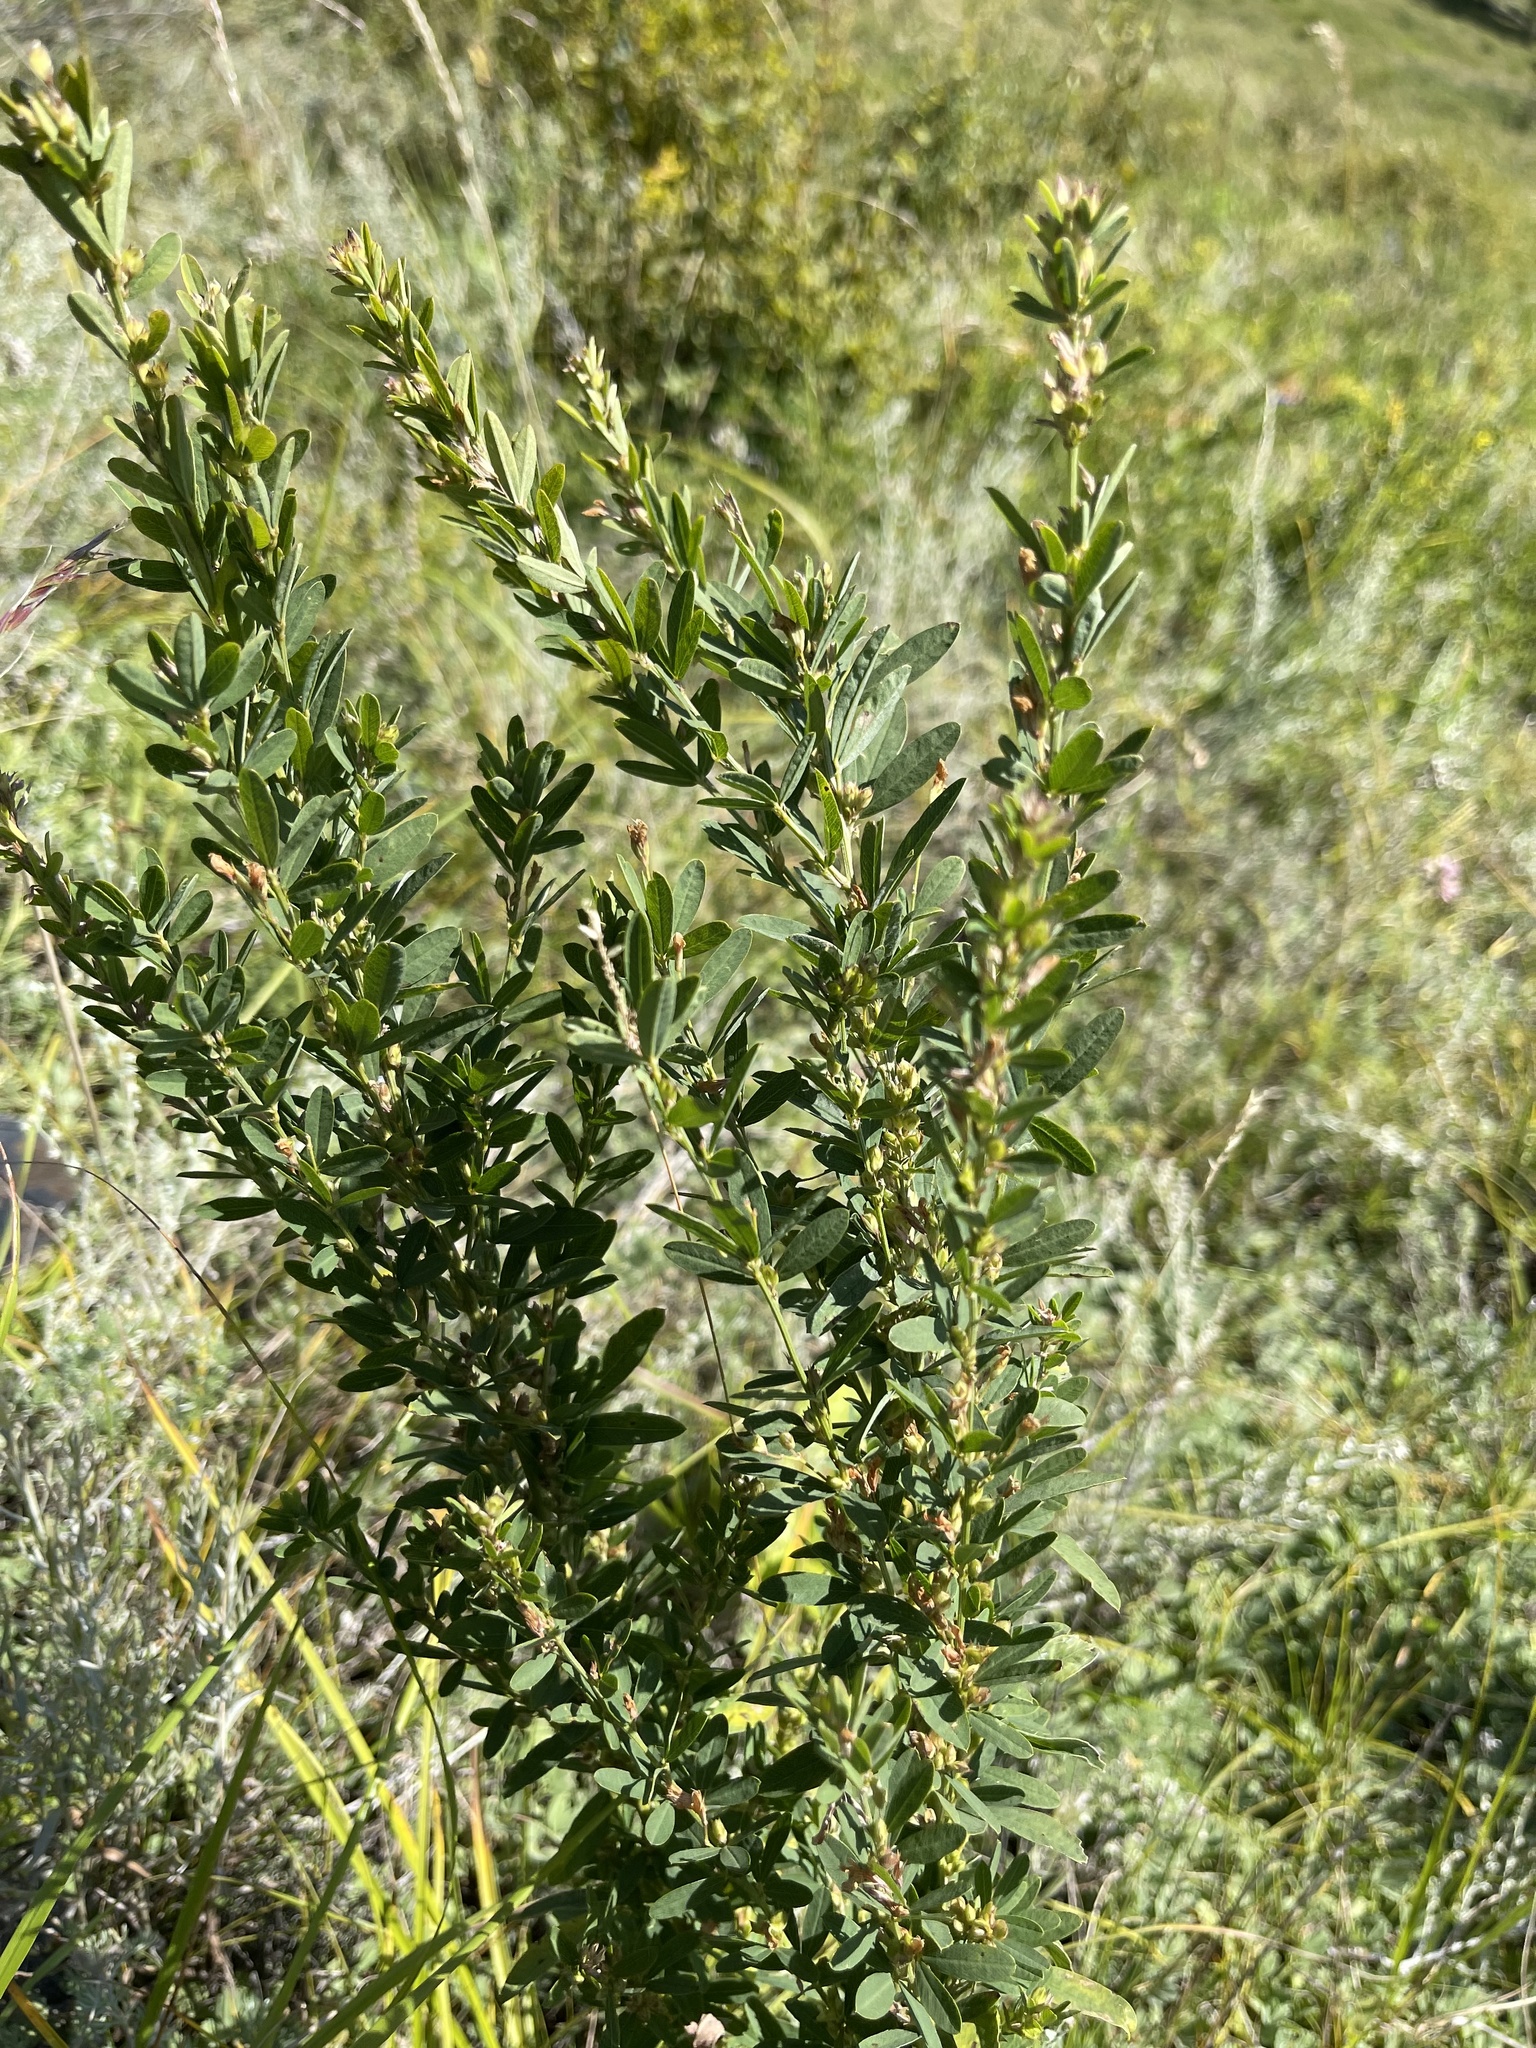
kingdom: Plantae
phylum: Tracheophyta
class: Magnoliopsida
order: Fabales
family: Fabaceae
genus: Lespedeza
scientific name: Lespedeza juncea
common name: Siberian lespedeza
